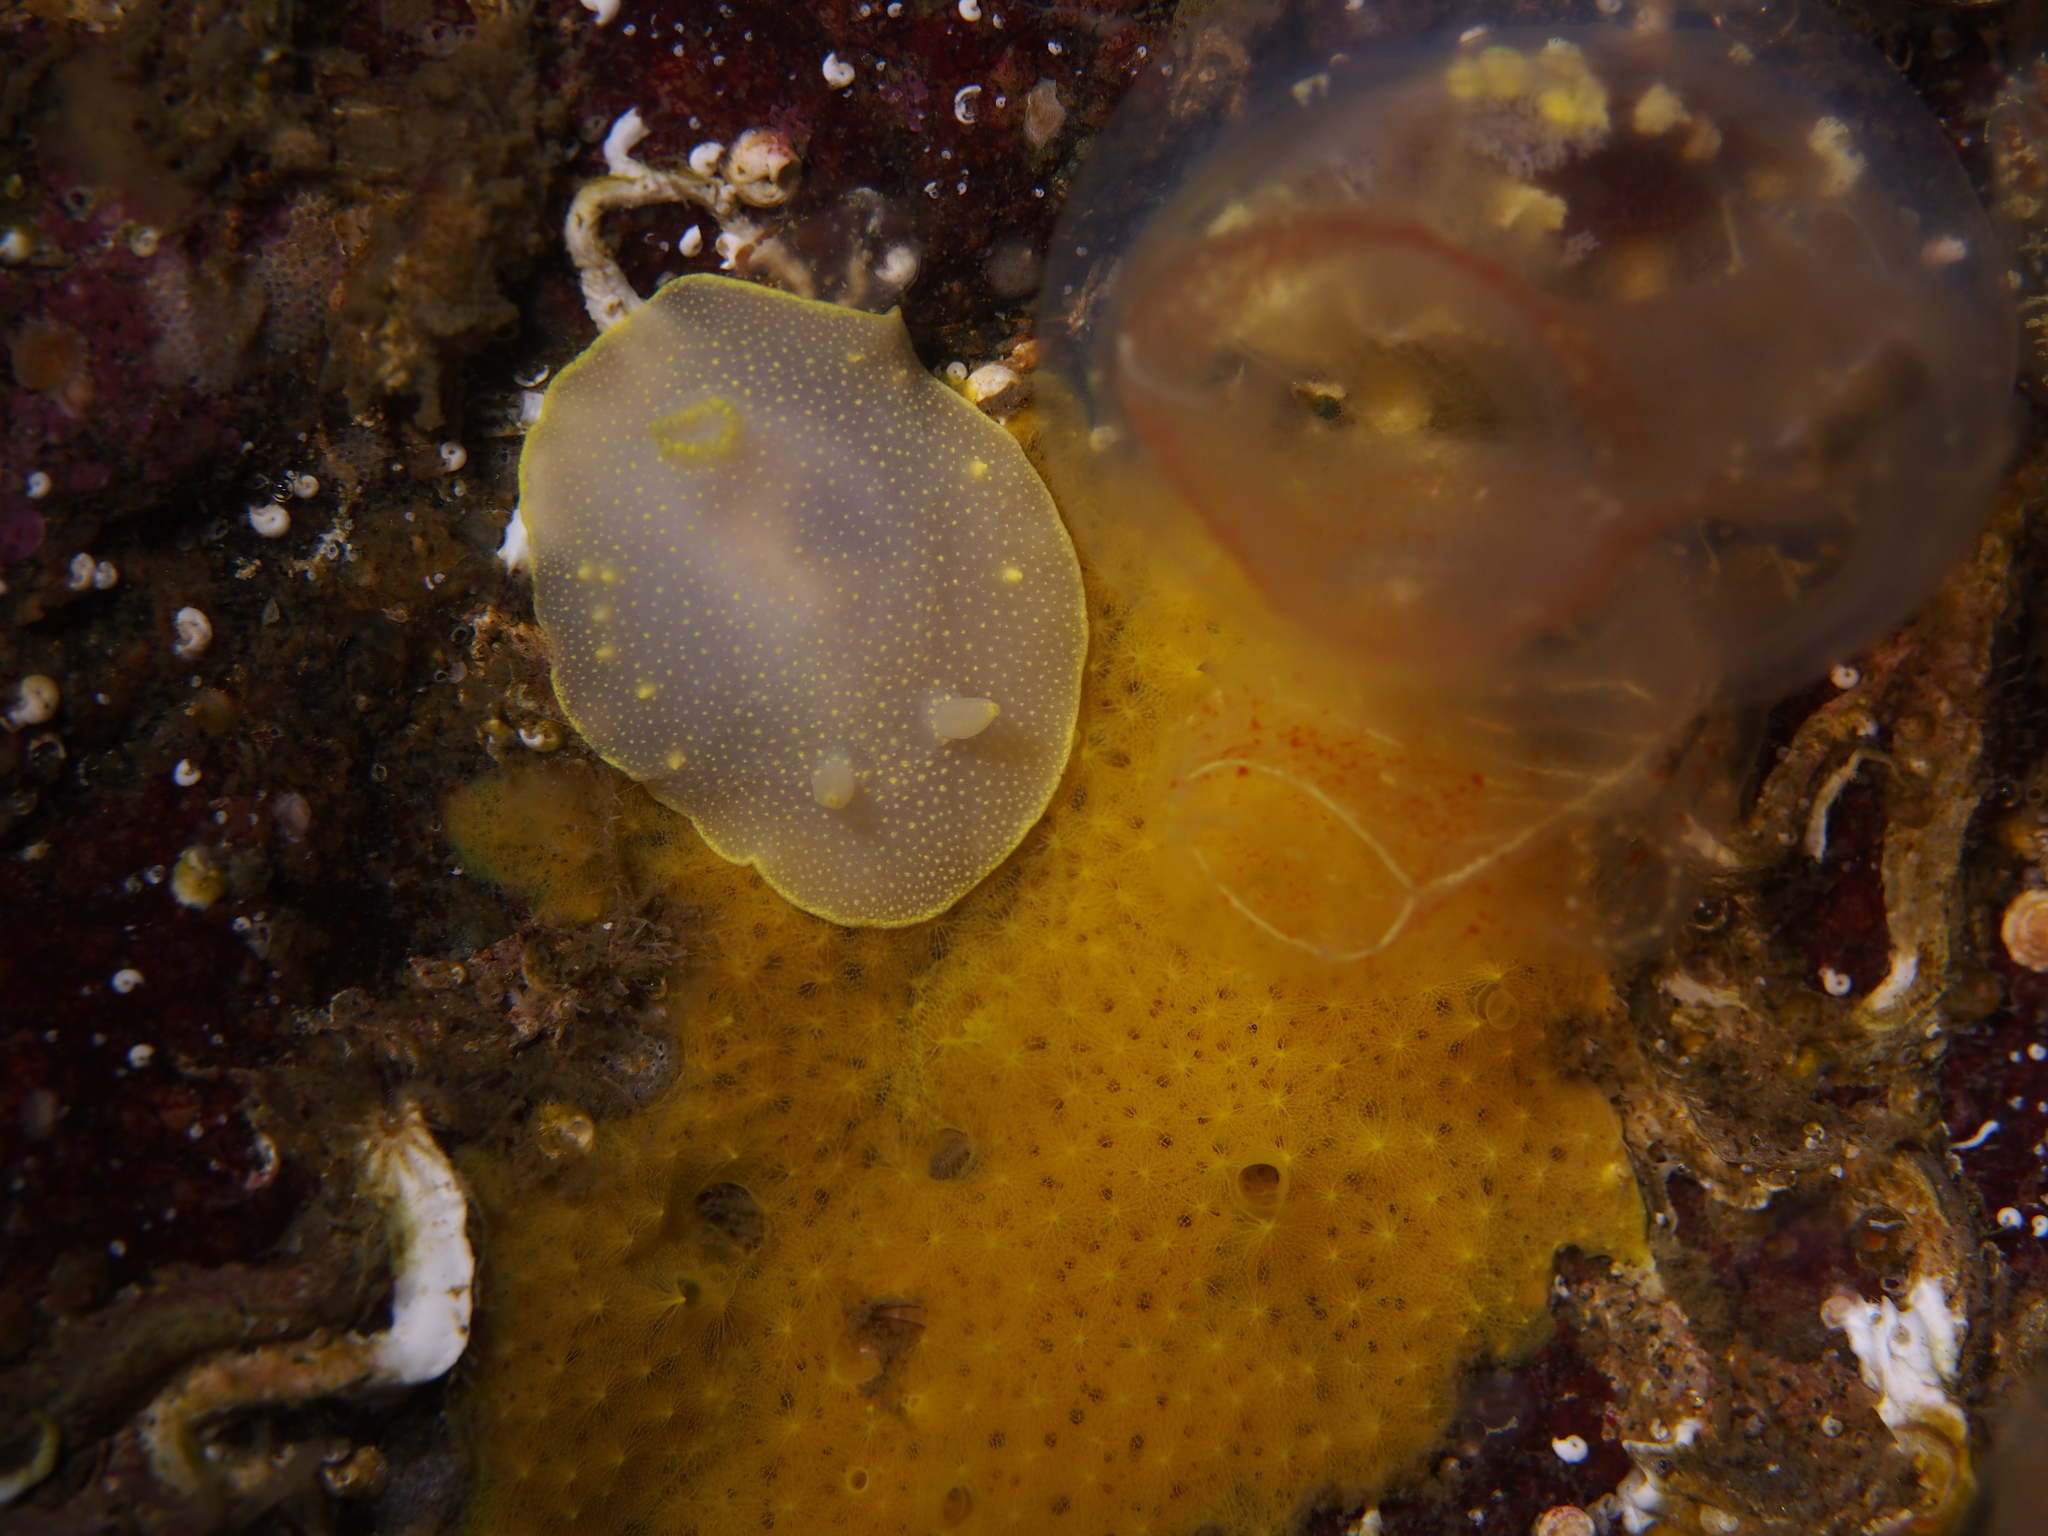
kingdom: Animalia
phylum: Mollusca
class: Gastropoda
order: Nudibranchia
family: Cadlinidae
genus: Cadlina
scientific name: Cadlina laevis
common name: White atlantic cadlina
